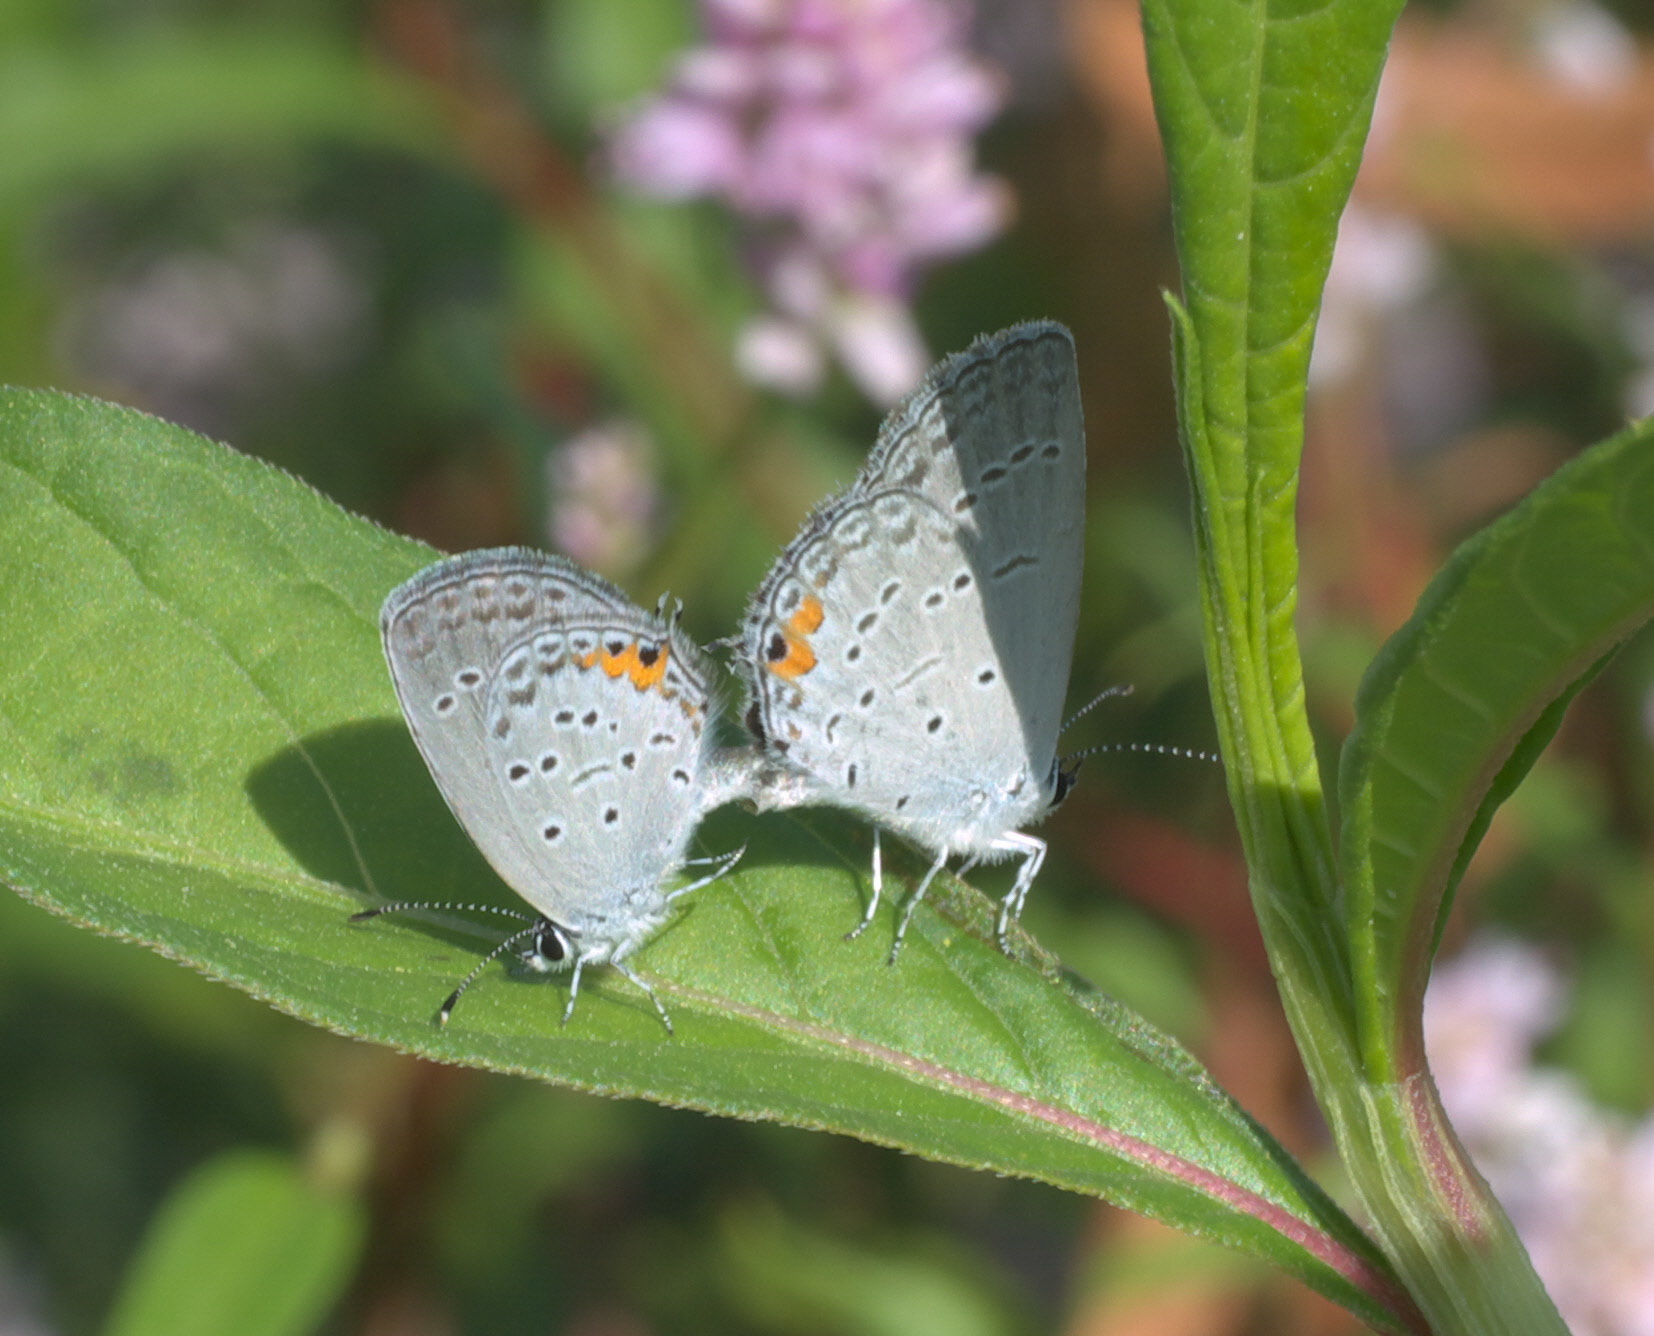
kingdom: Animalia
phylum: Arthropoda
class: Insecta
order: Lepidoptera
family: Lycaenidae
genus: Elkalyce
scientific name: Elkalyce comyntas
